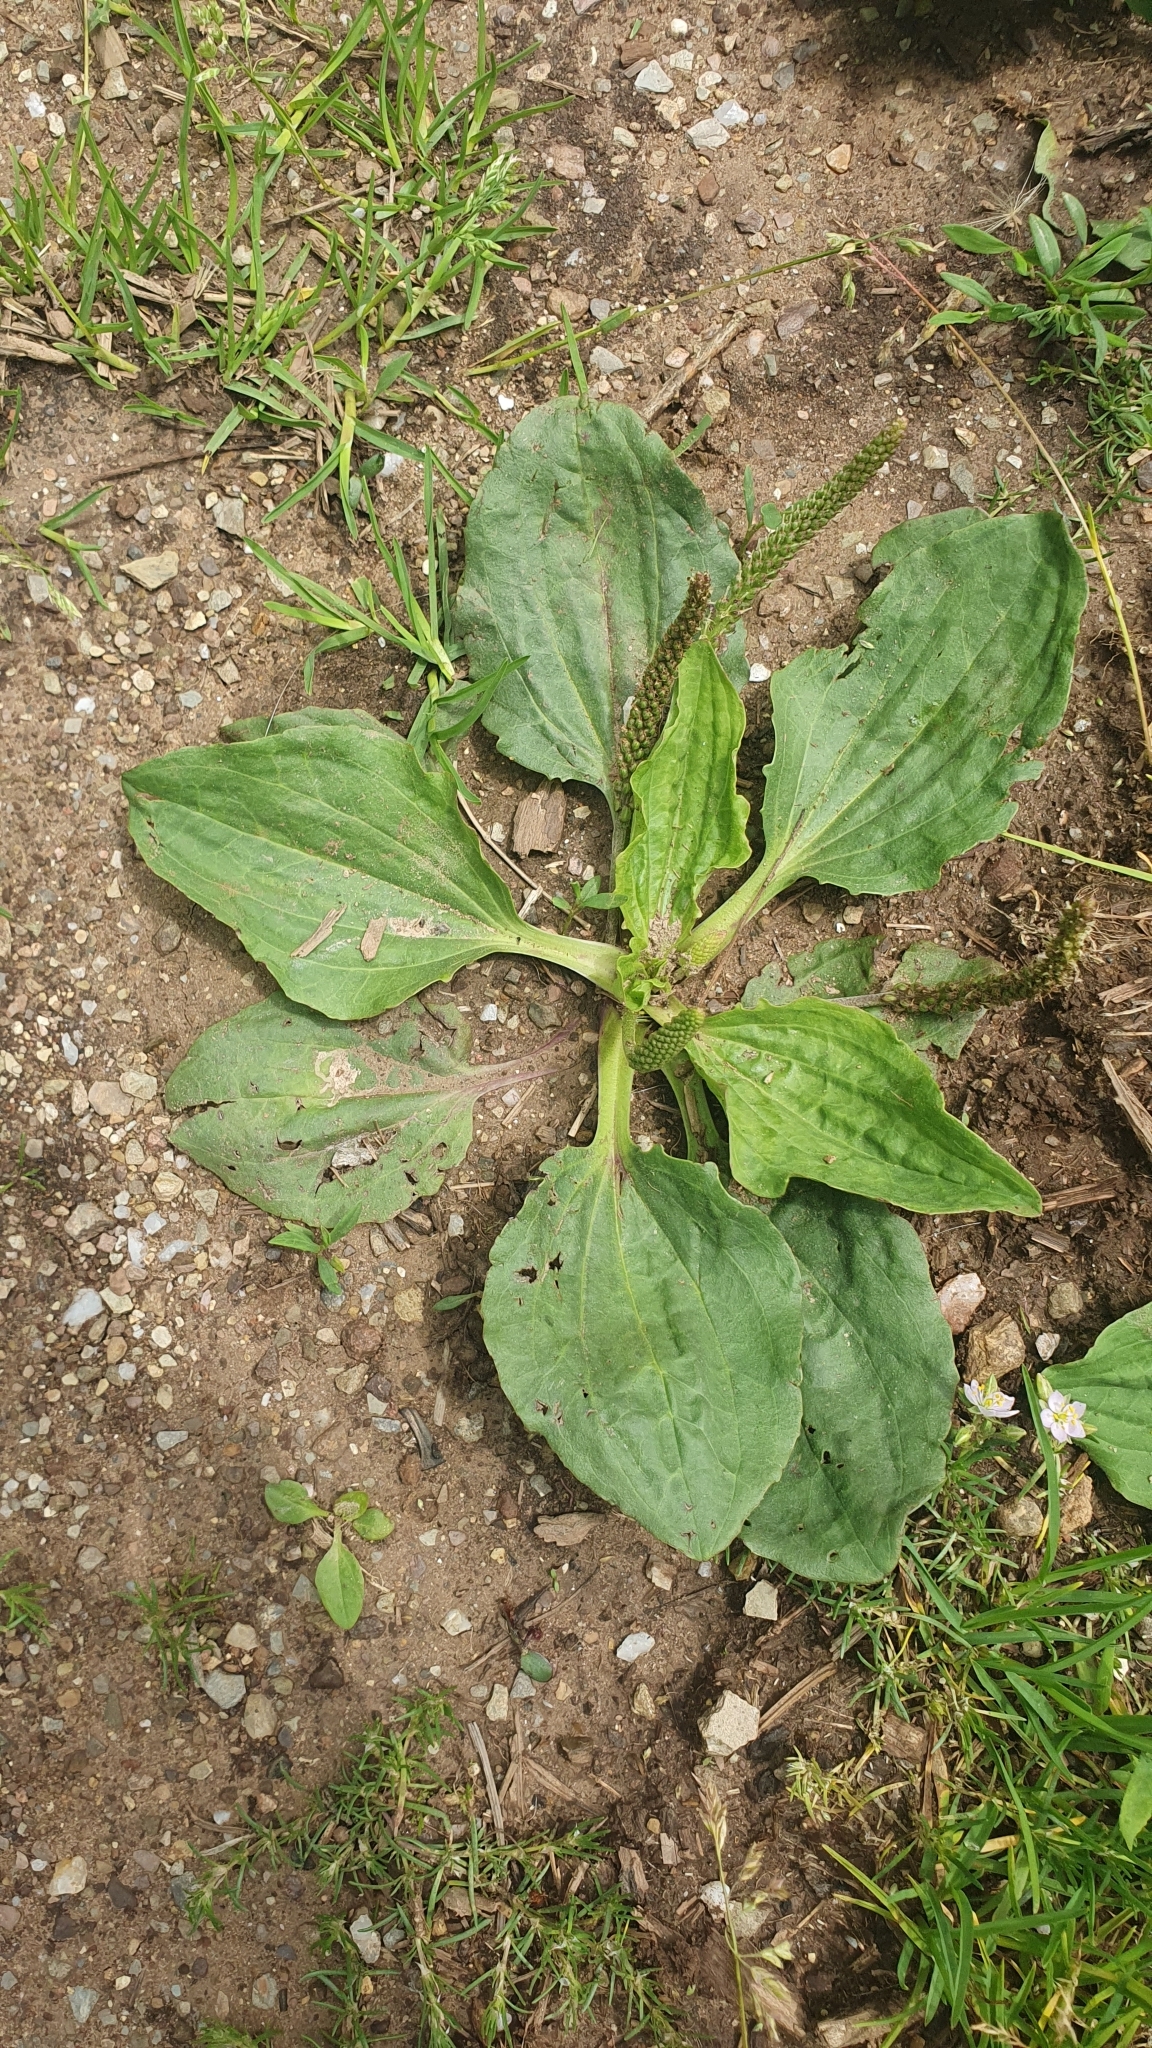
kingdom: Plantae
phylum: Tracheophyta
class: Magnoliopsida
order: Lamiales
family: Plantaginaceae
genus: Plantago
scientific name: Plantago major
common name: Common plantain
